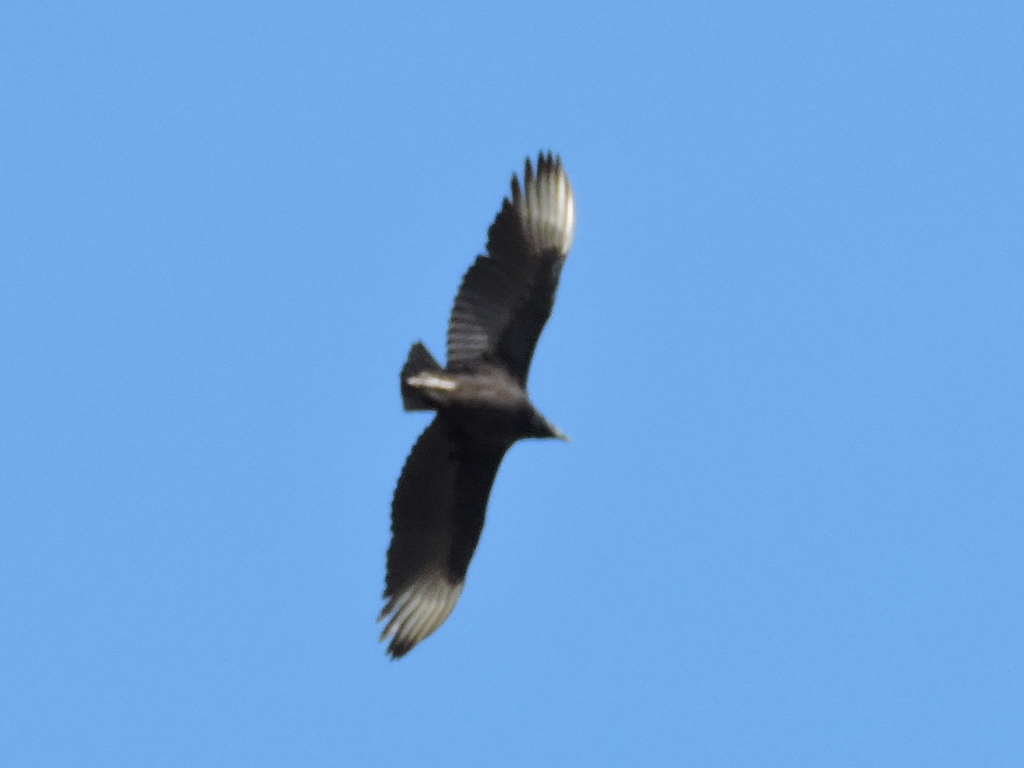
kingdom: Animalia
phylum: Chordata
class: Aves
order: Accipitriformes
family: Cathartidae
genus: Coragyps
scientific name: Coragyps atratus
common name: Black vulture
